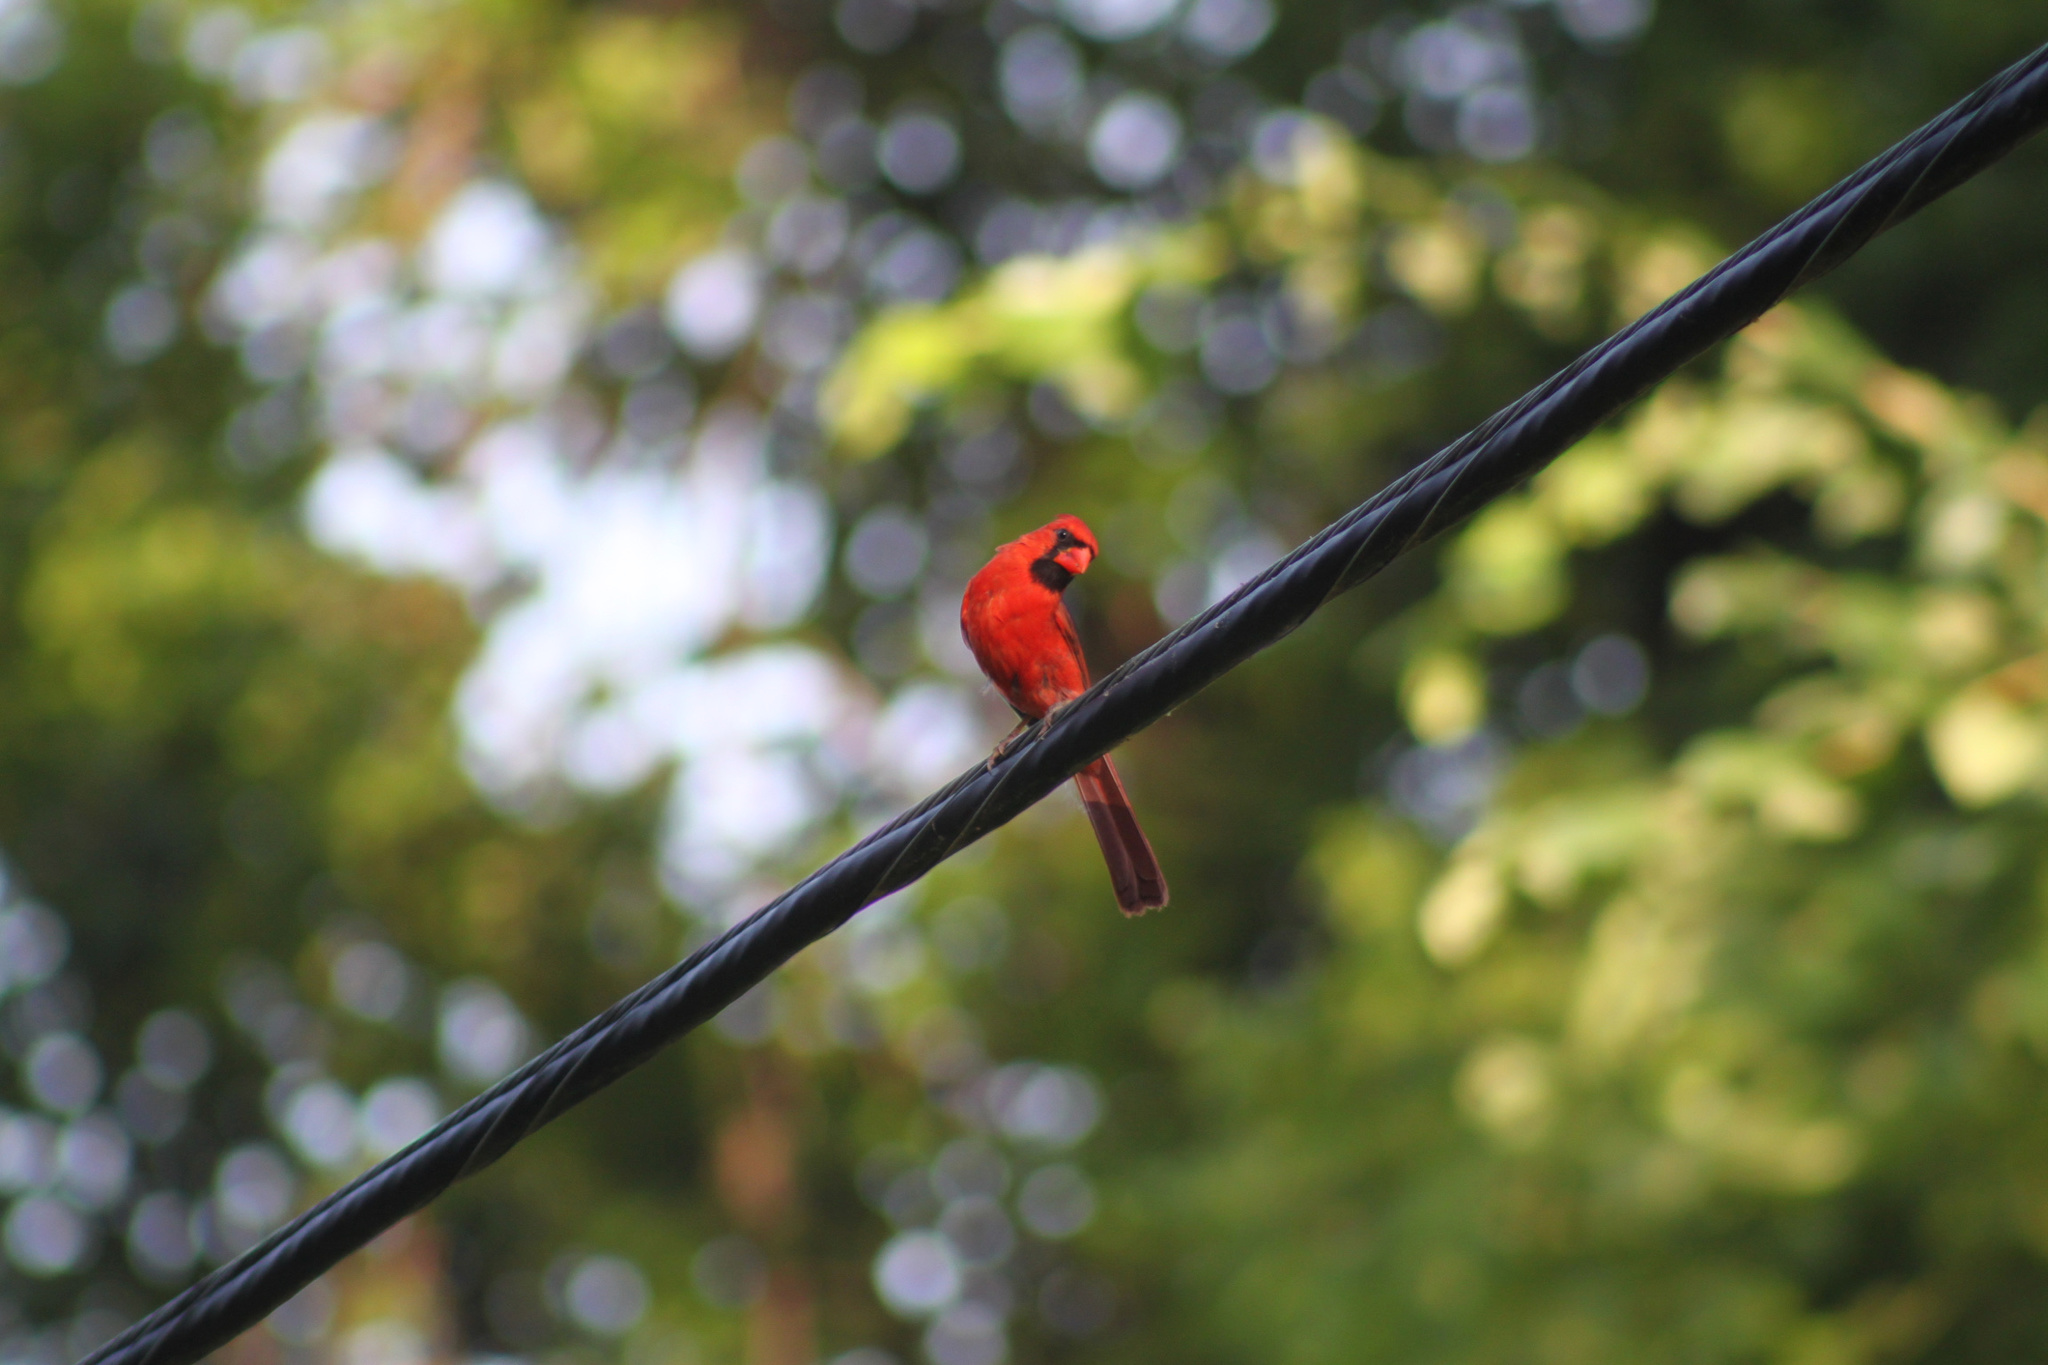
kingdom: Animalia
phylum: Chordata
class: Aves
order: Passeriformes
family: Cardinalidae
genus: Cardinalis
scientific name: Cardinalis cardinalis
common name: Northern cardinal
